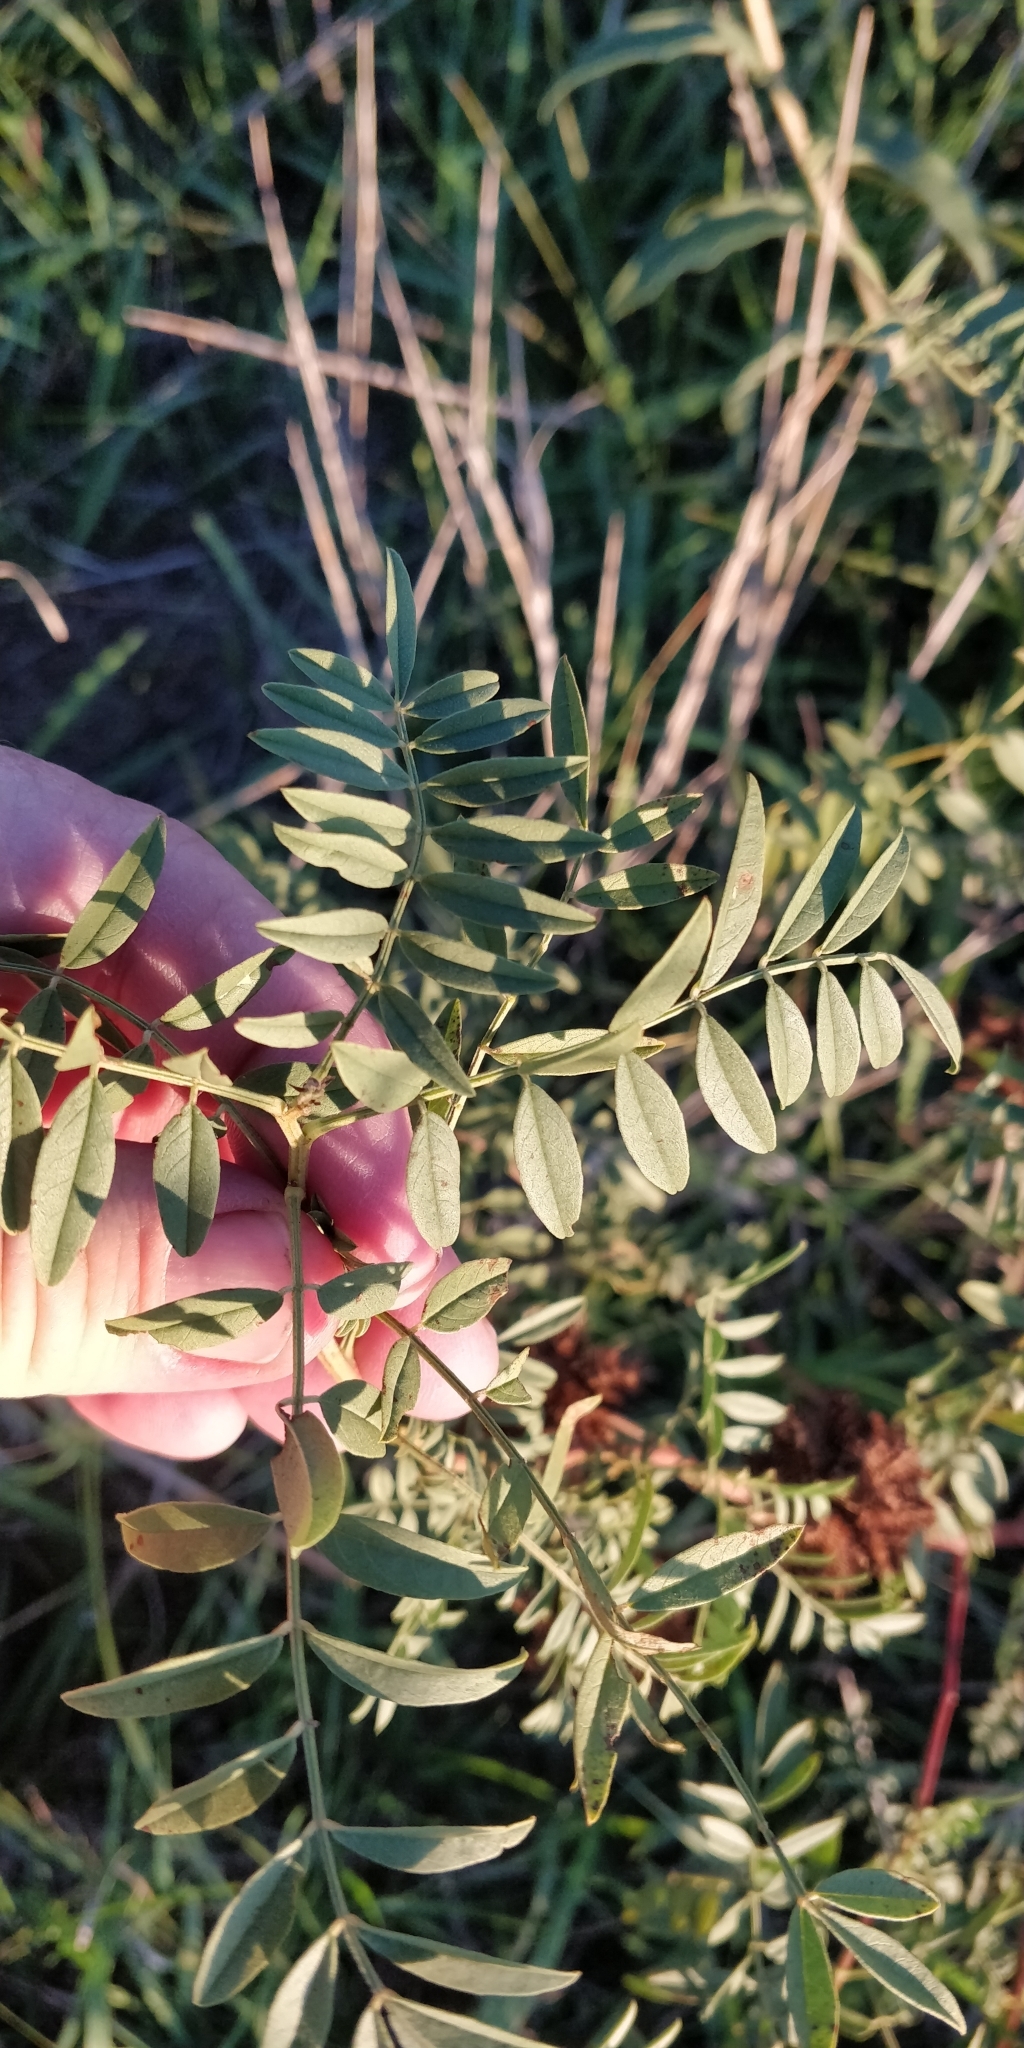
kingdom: Plantae
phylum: Tracheophyta
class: Magnoliopsida
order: Fabales
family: Fabaceae
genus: Glycyrrhiza
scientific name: Glycyrrhiza lepidota
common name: American liquorice
